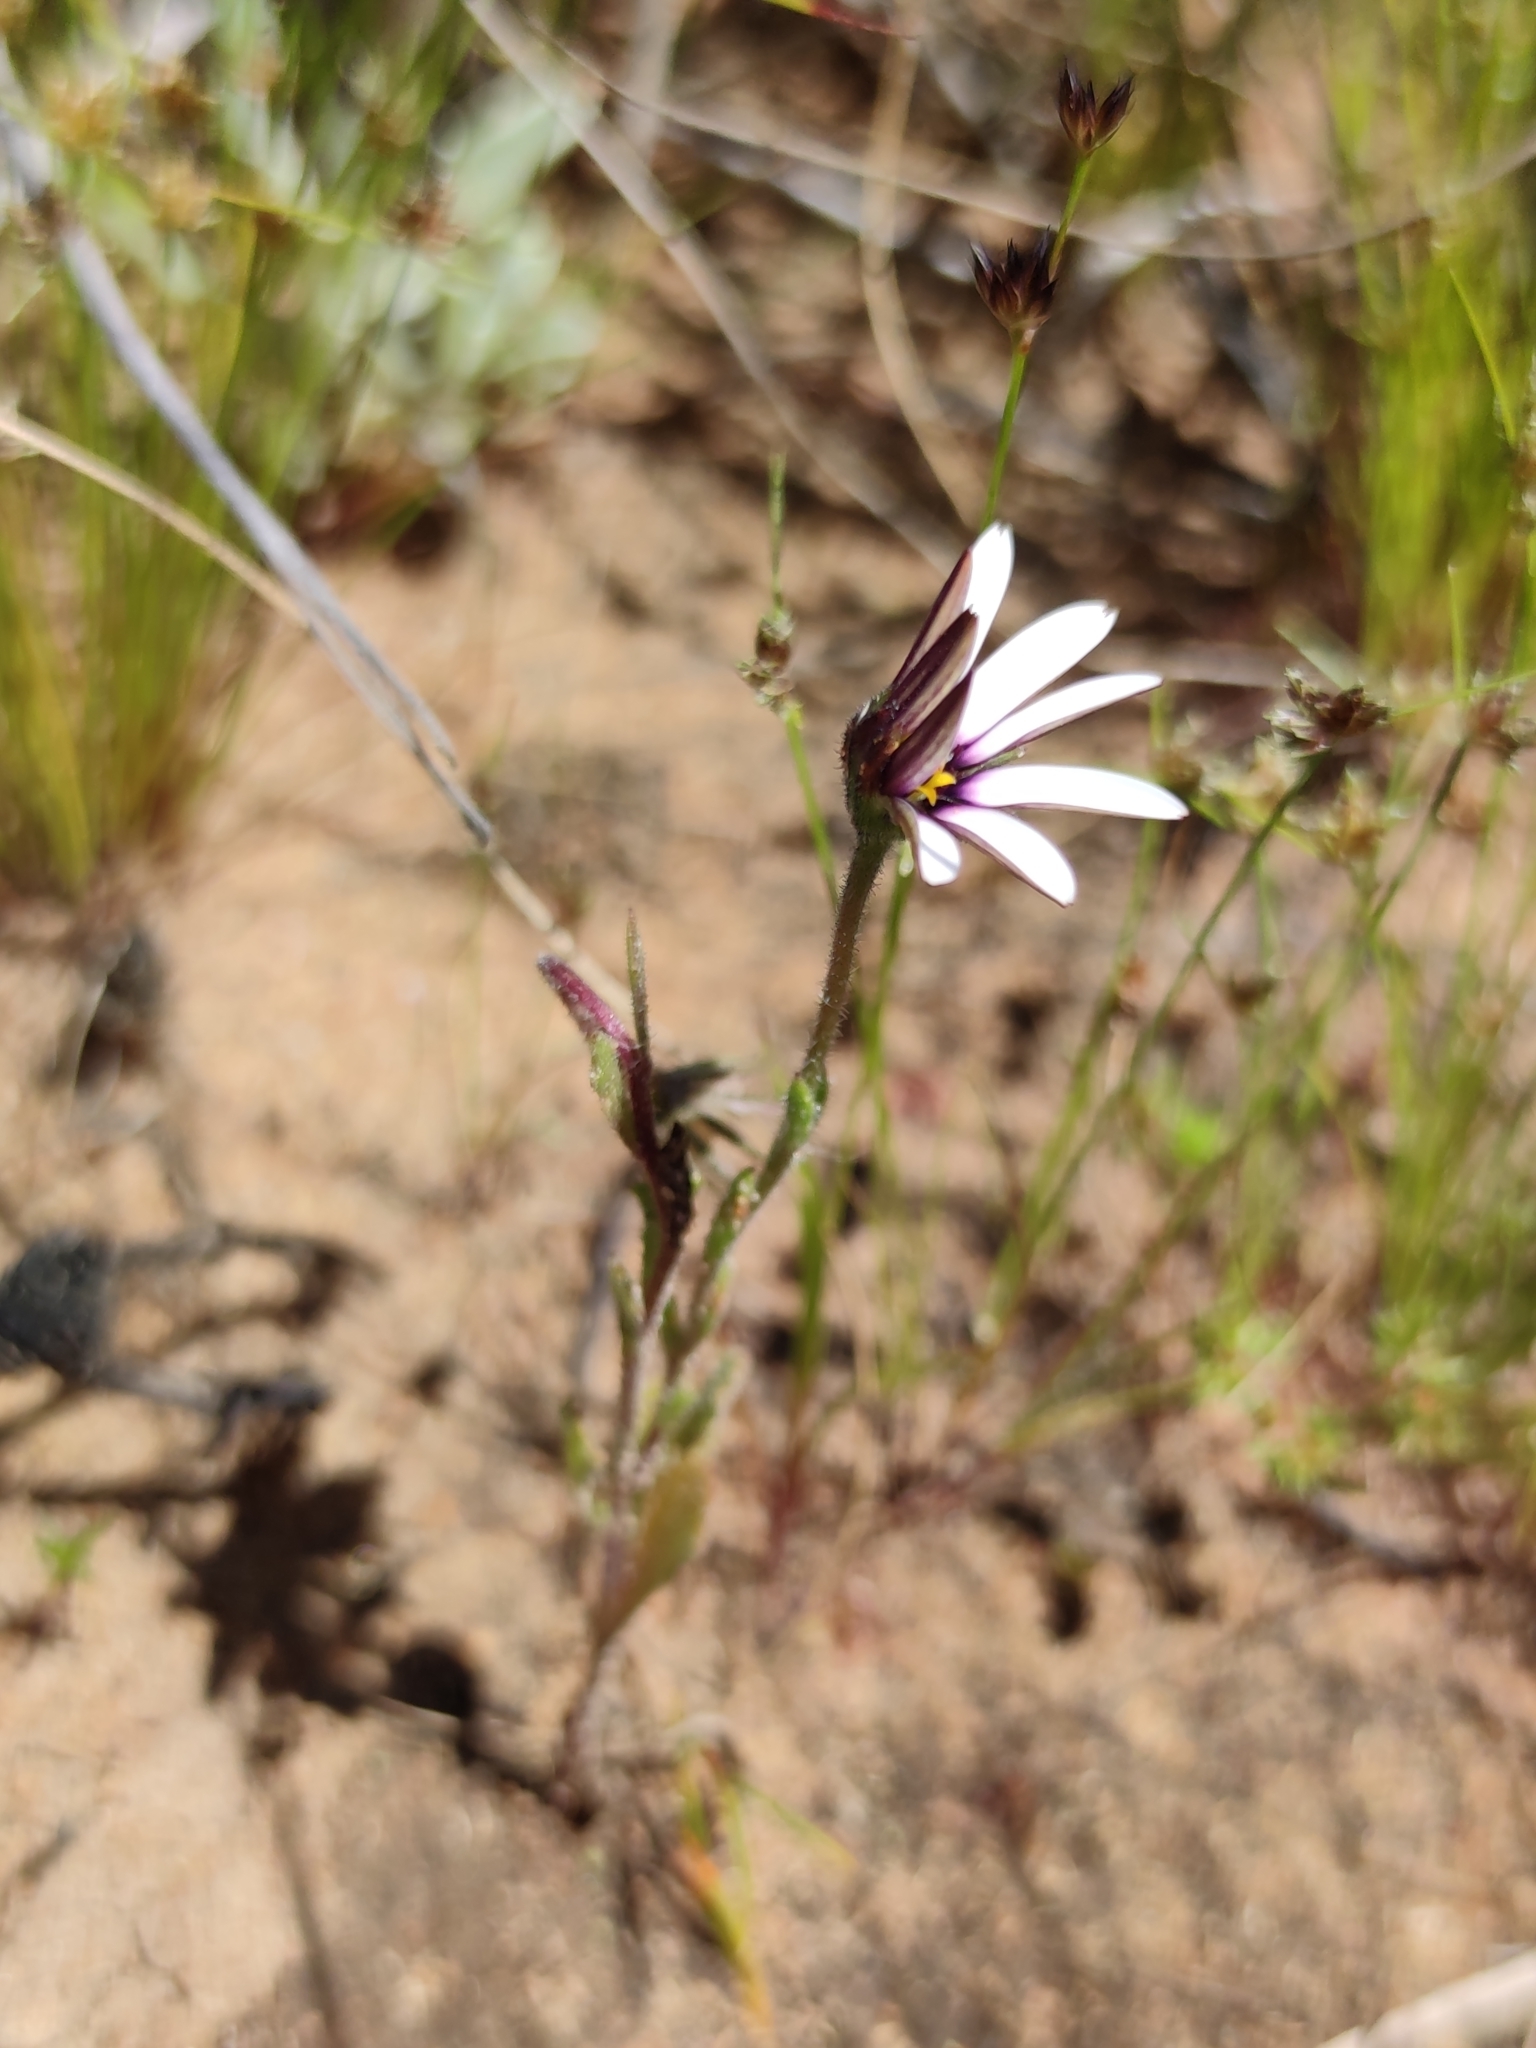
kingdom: Plantae
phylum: Tracheophyta
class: Magnoliopsida
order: Asterales
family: Asteraceae
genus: Dimorphotheca
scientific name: Dimorphotheca pluvialis
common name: Weather prophet
